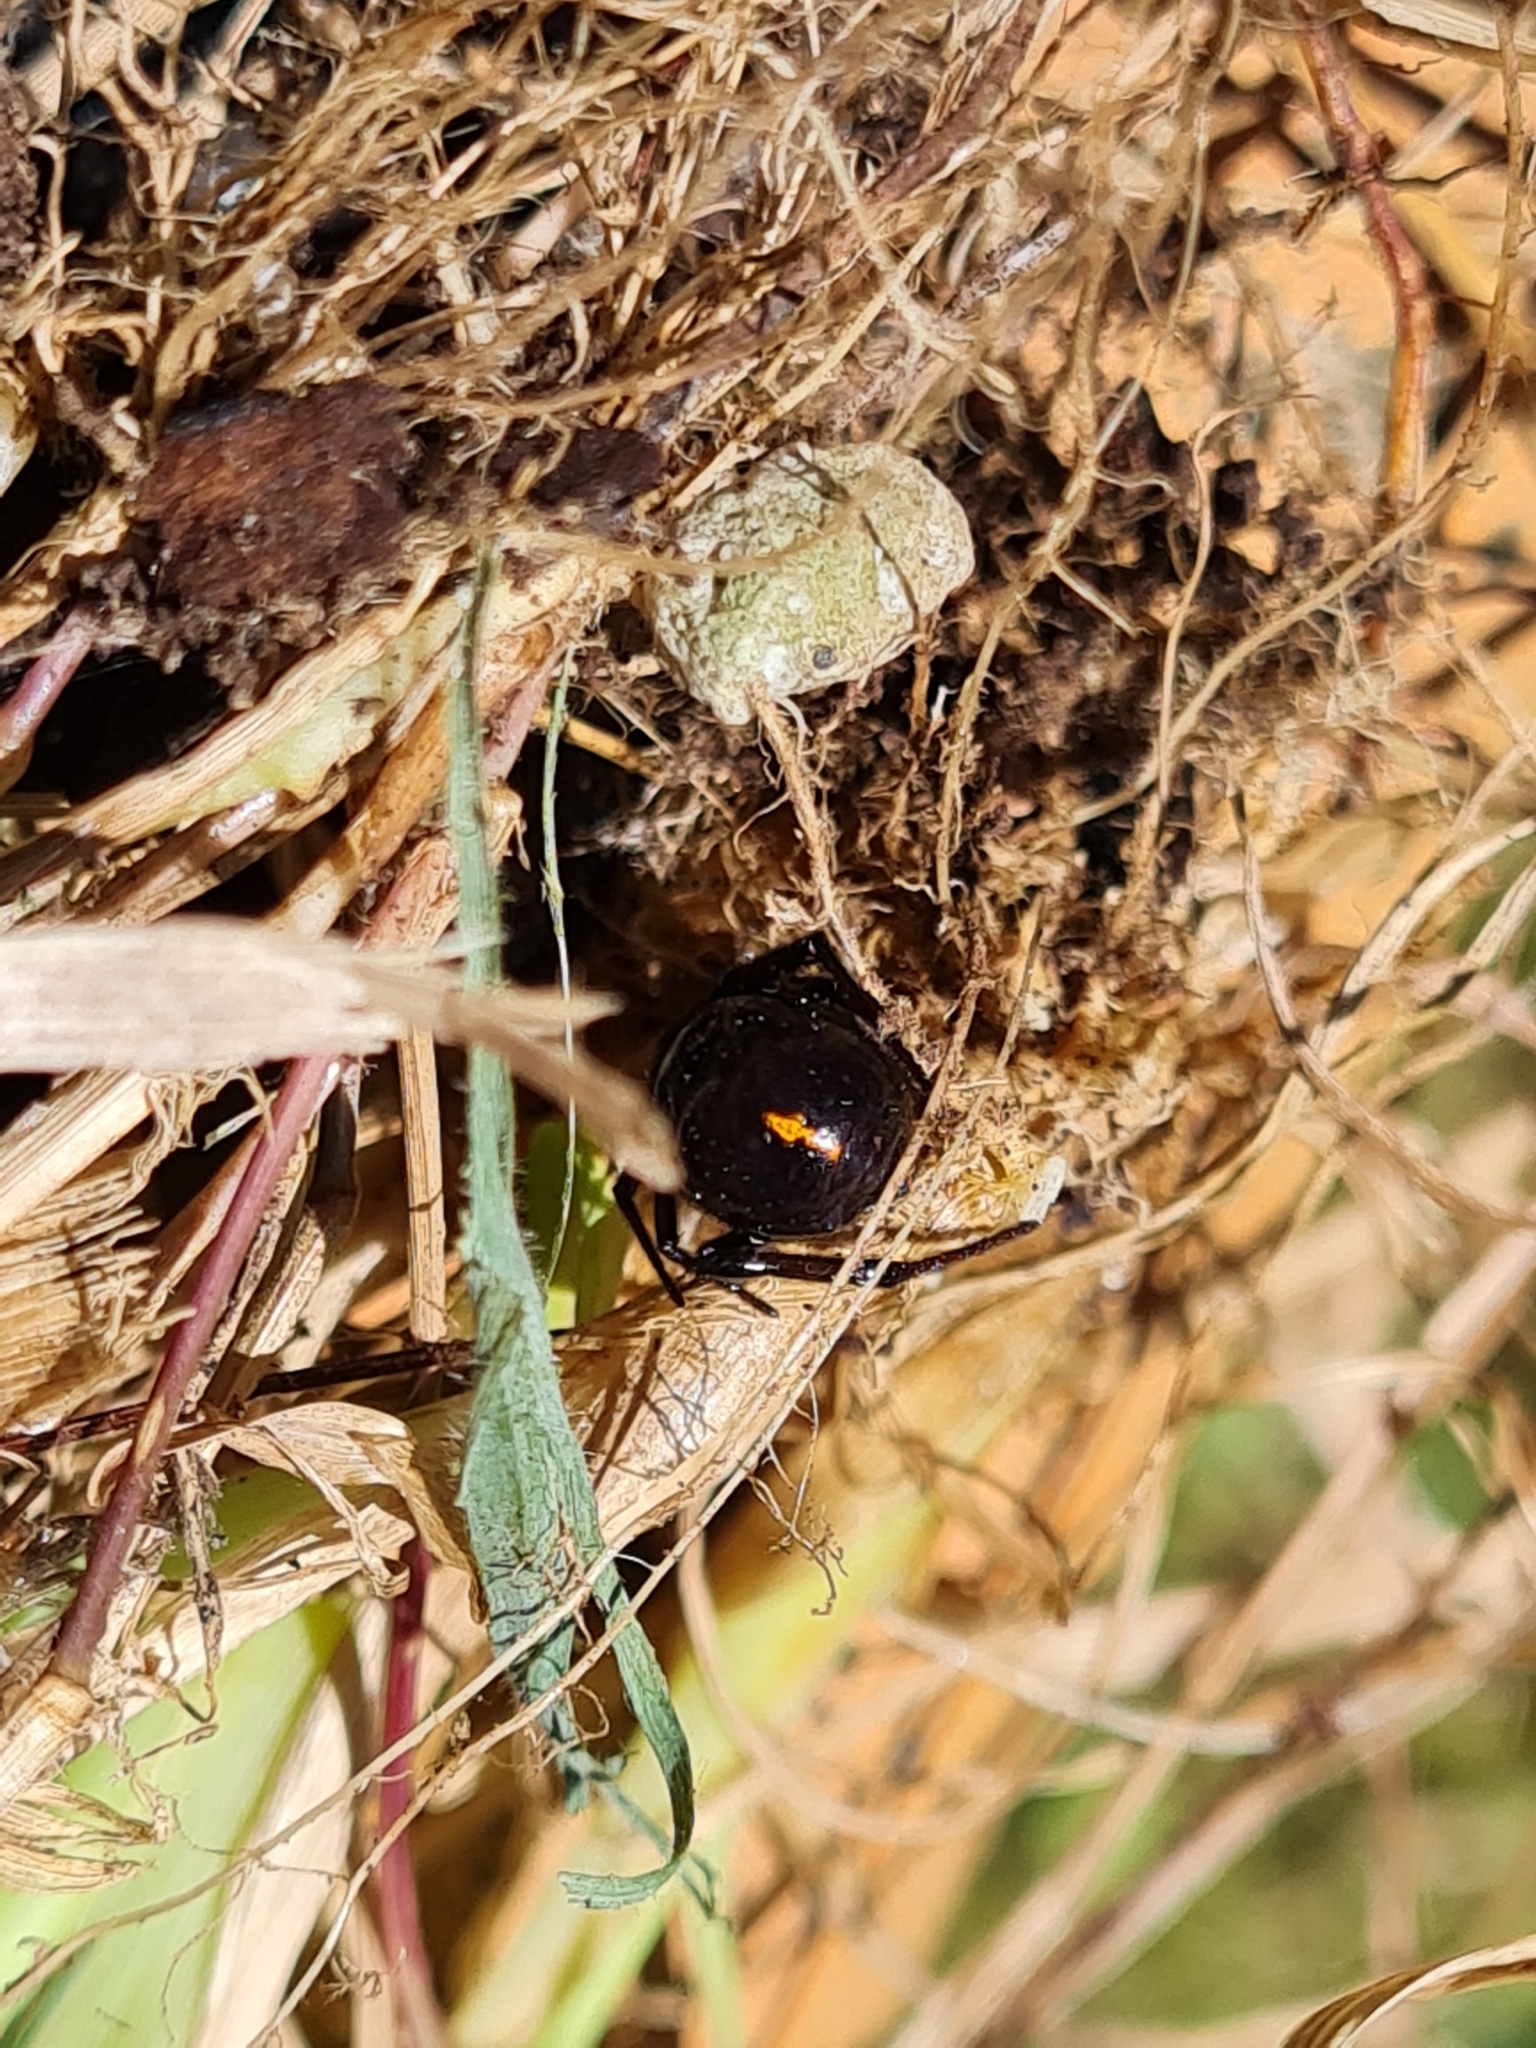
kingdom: Animalia
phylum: Arthropoda
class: Arachnida
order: Araneae
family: Theridiidae
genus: Steatoda
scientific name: Steatoda capensis
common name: Cobweb weaver
